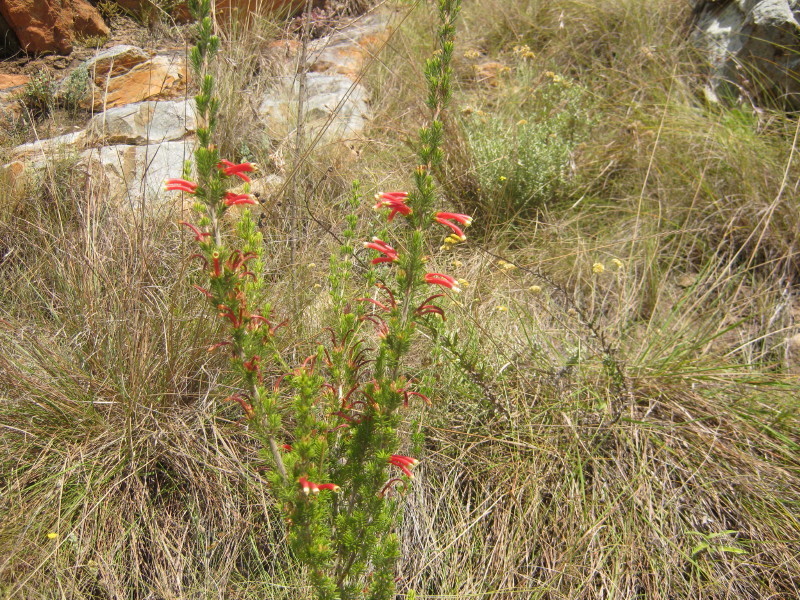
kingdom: Plantae
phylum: Tracheophyta
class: Magnoliopsida
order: Ericales
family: Ericaceae
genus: Erica
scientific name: Erica discolor
